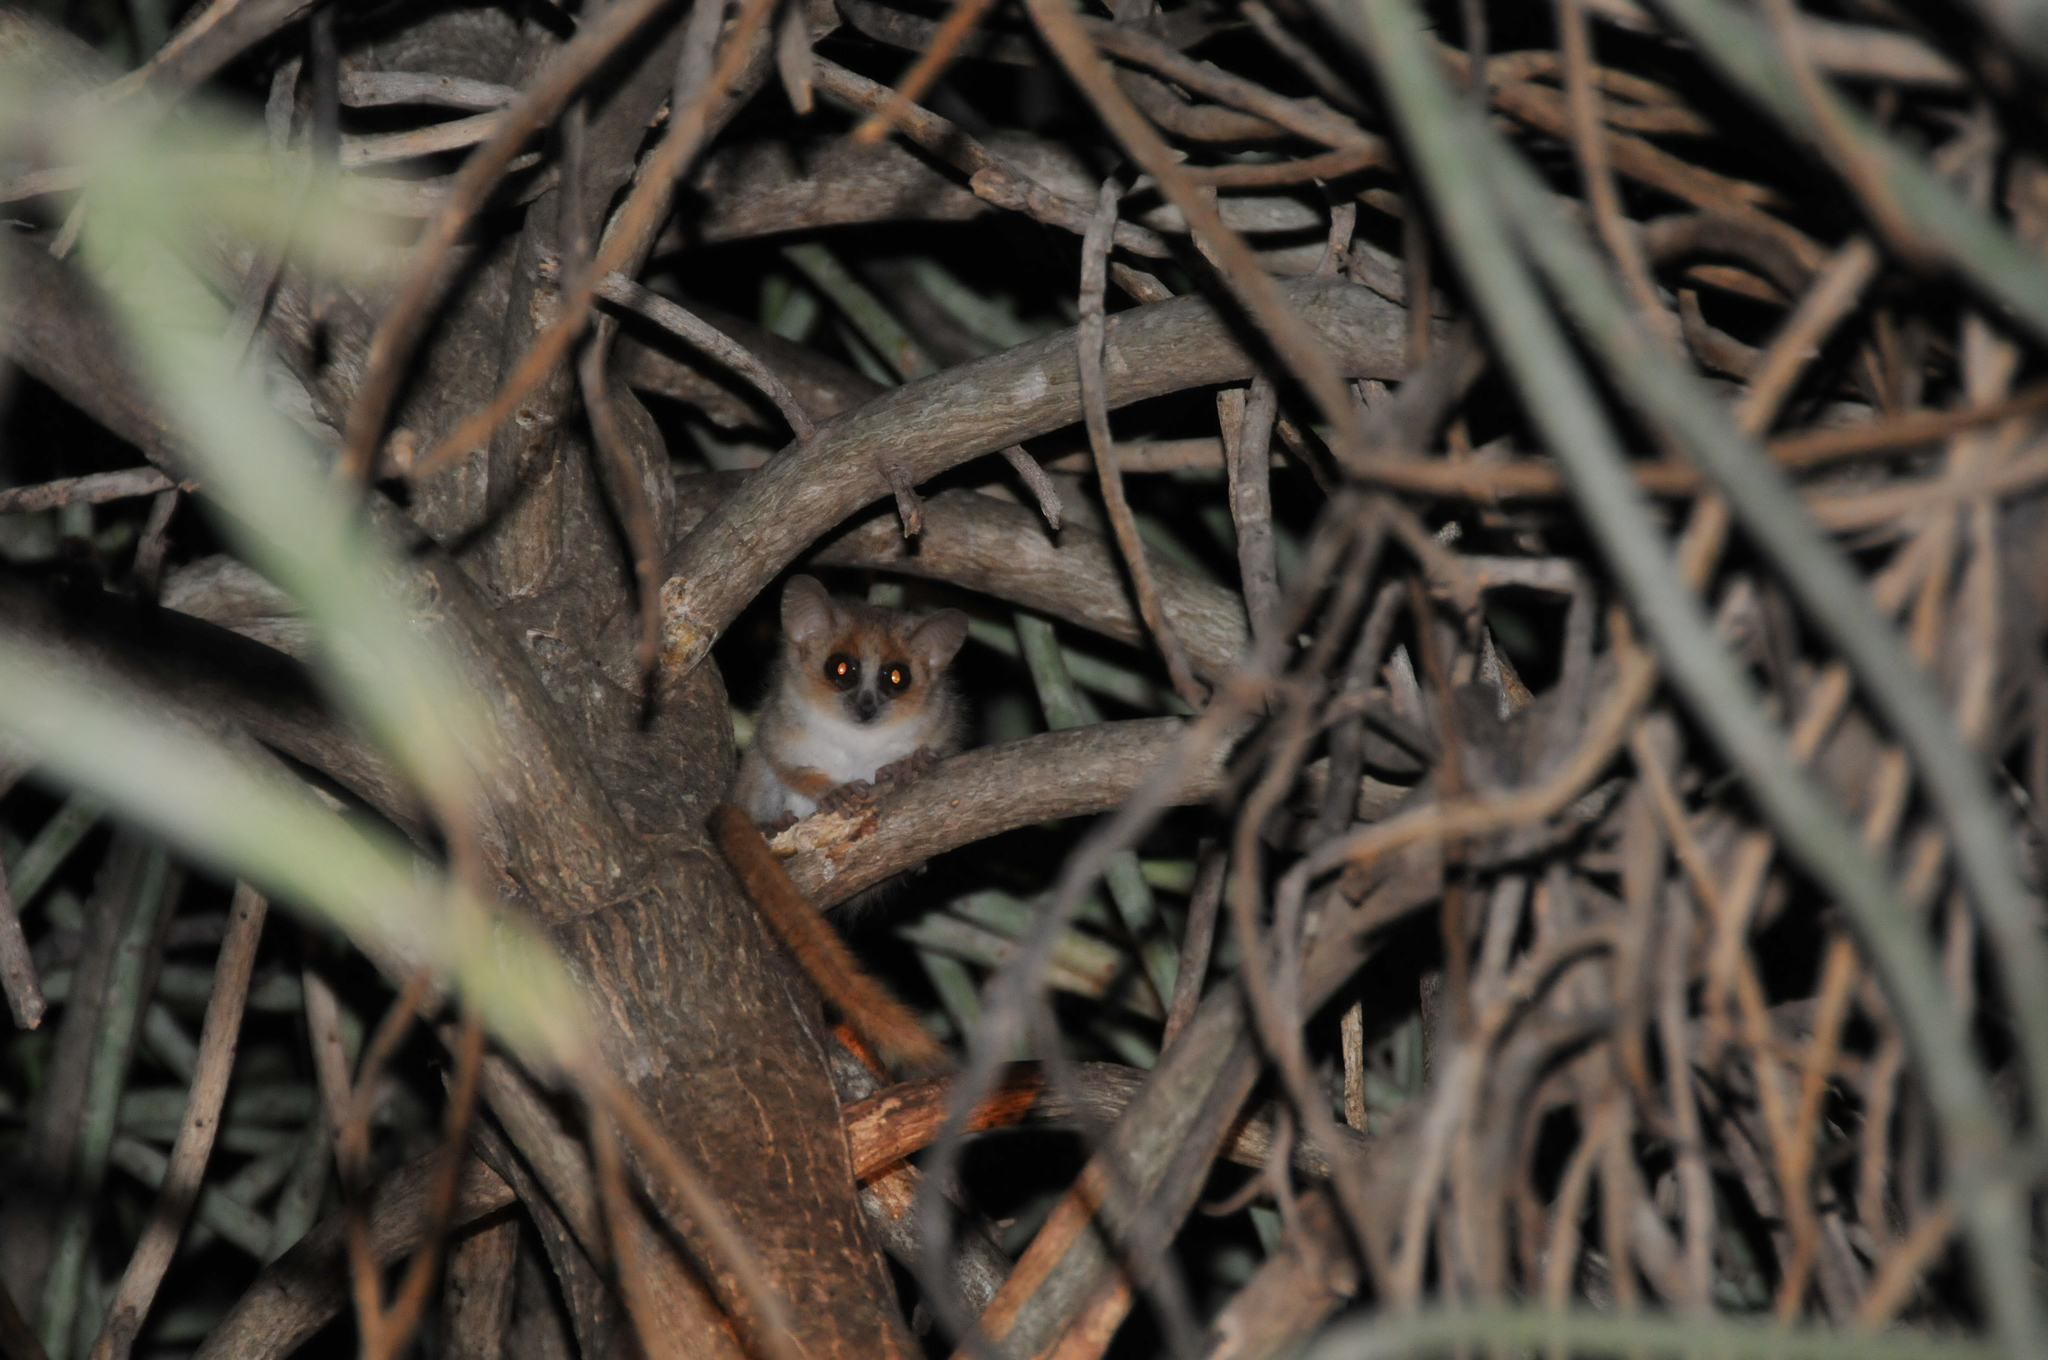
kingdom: Animalia
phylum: Chordata
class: Mammalia
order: Primates
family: Cheirogaleidae
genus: Microcebus
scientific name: Microcebus
